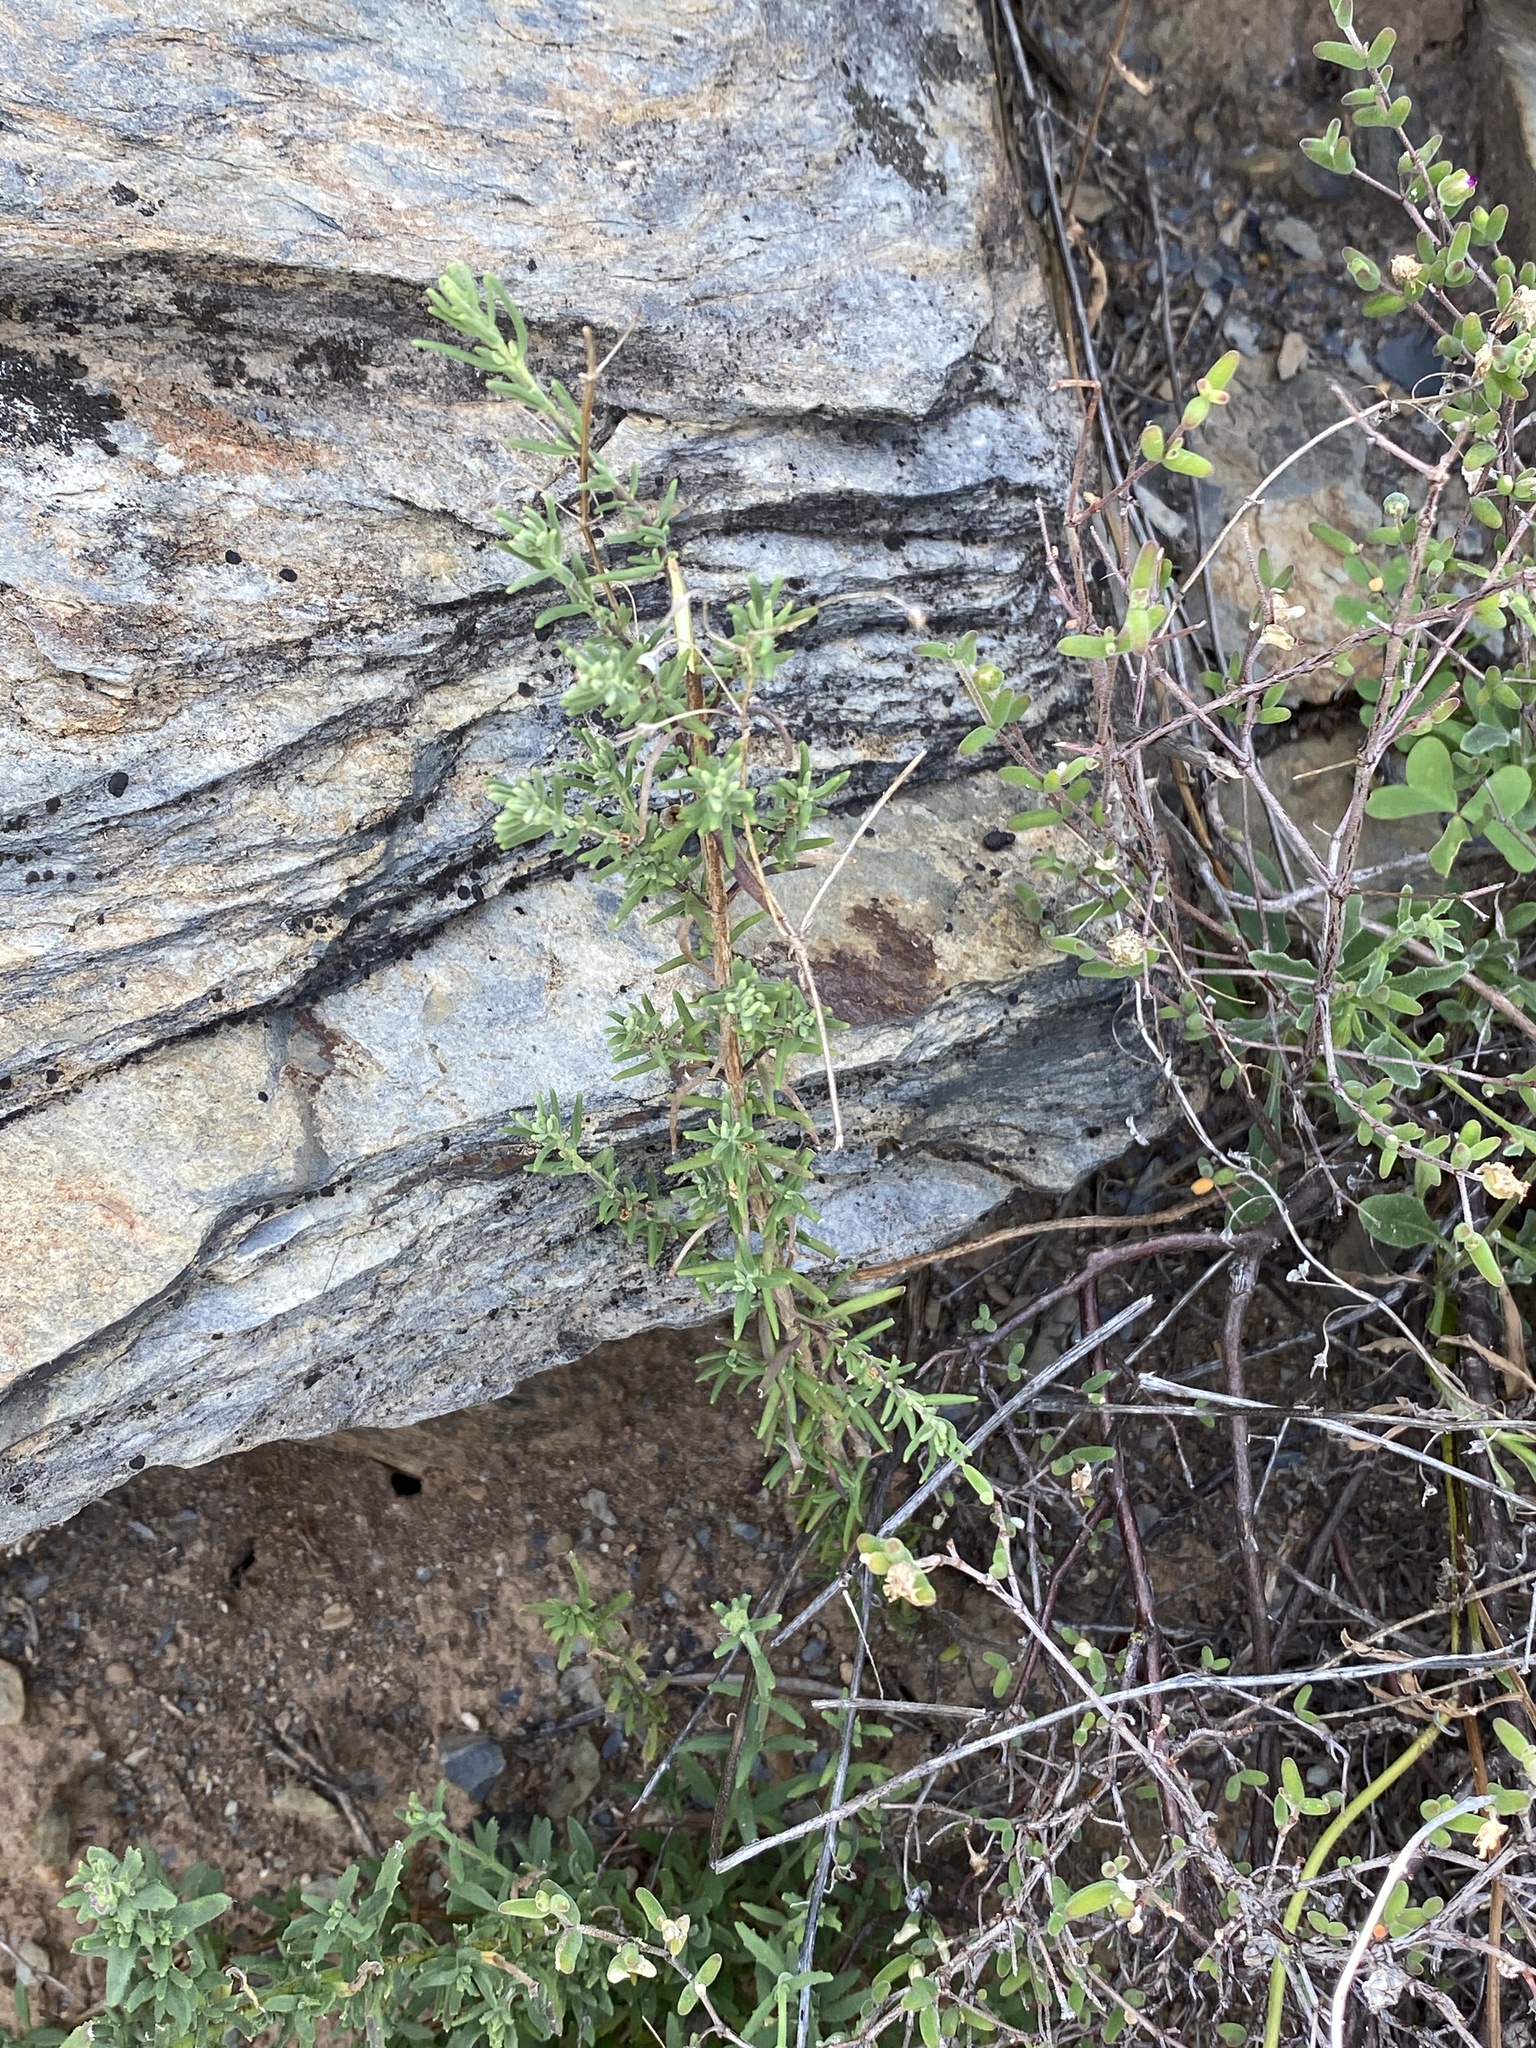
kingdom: Plantae
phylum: Tracheophyta
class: Magnoliopsida
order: Lamiales
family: Scrophulariaceae
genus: Chaenostoma
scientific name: Chaenostoma revolutum
